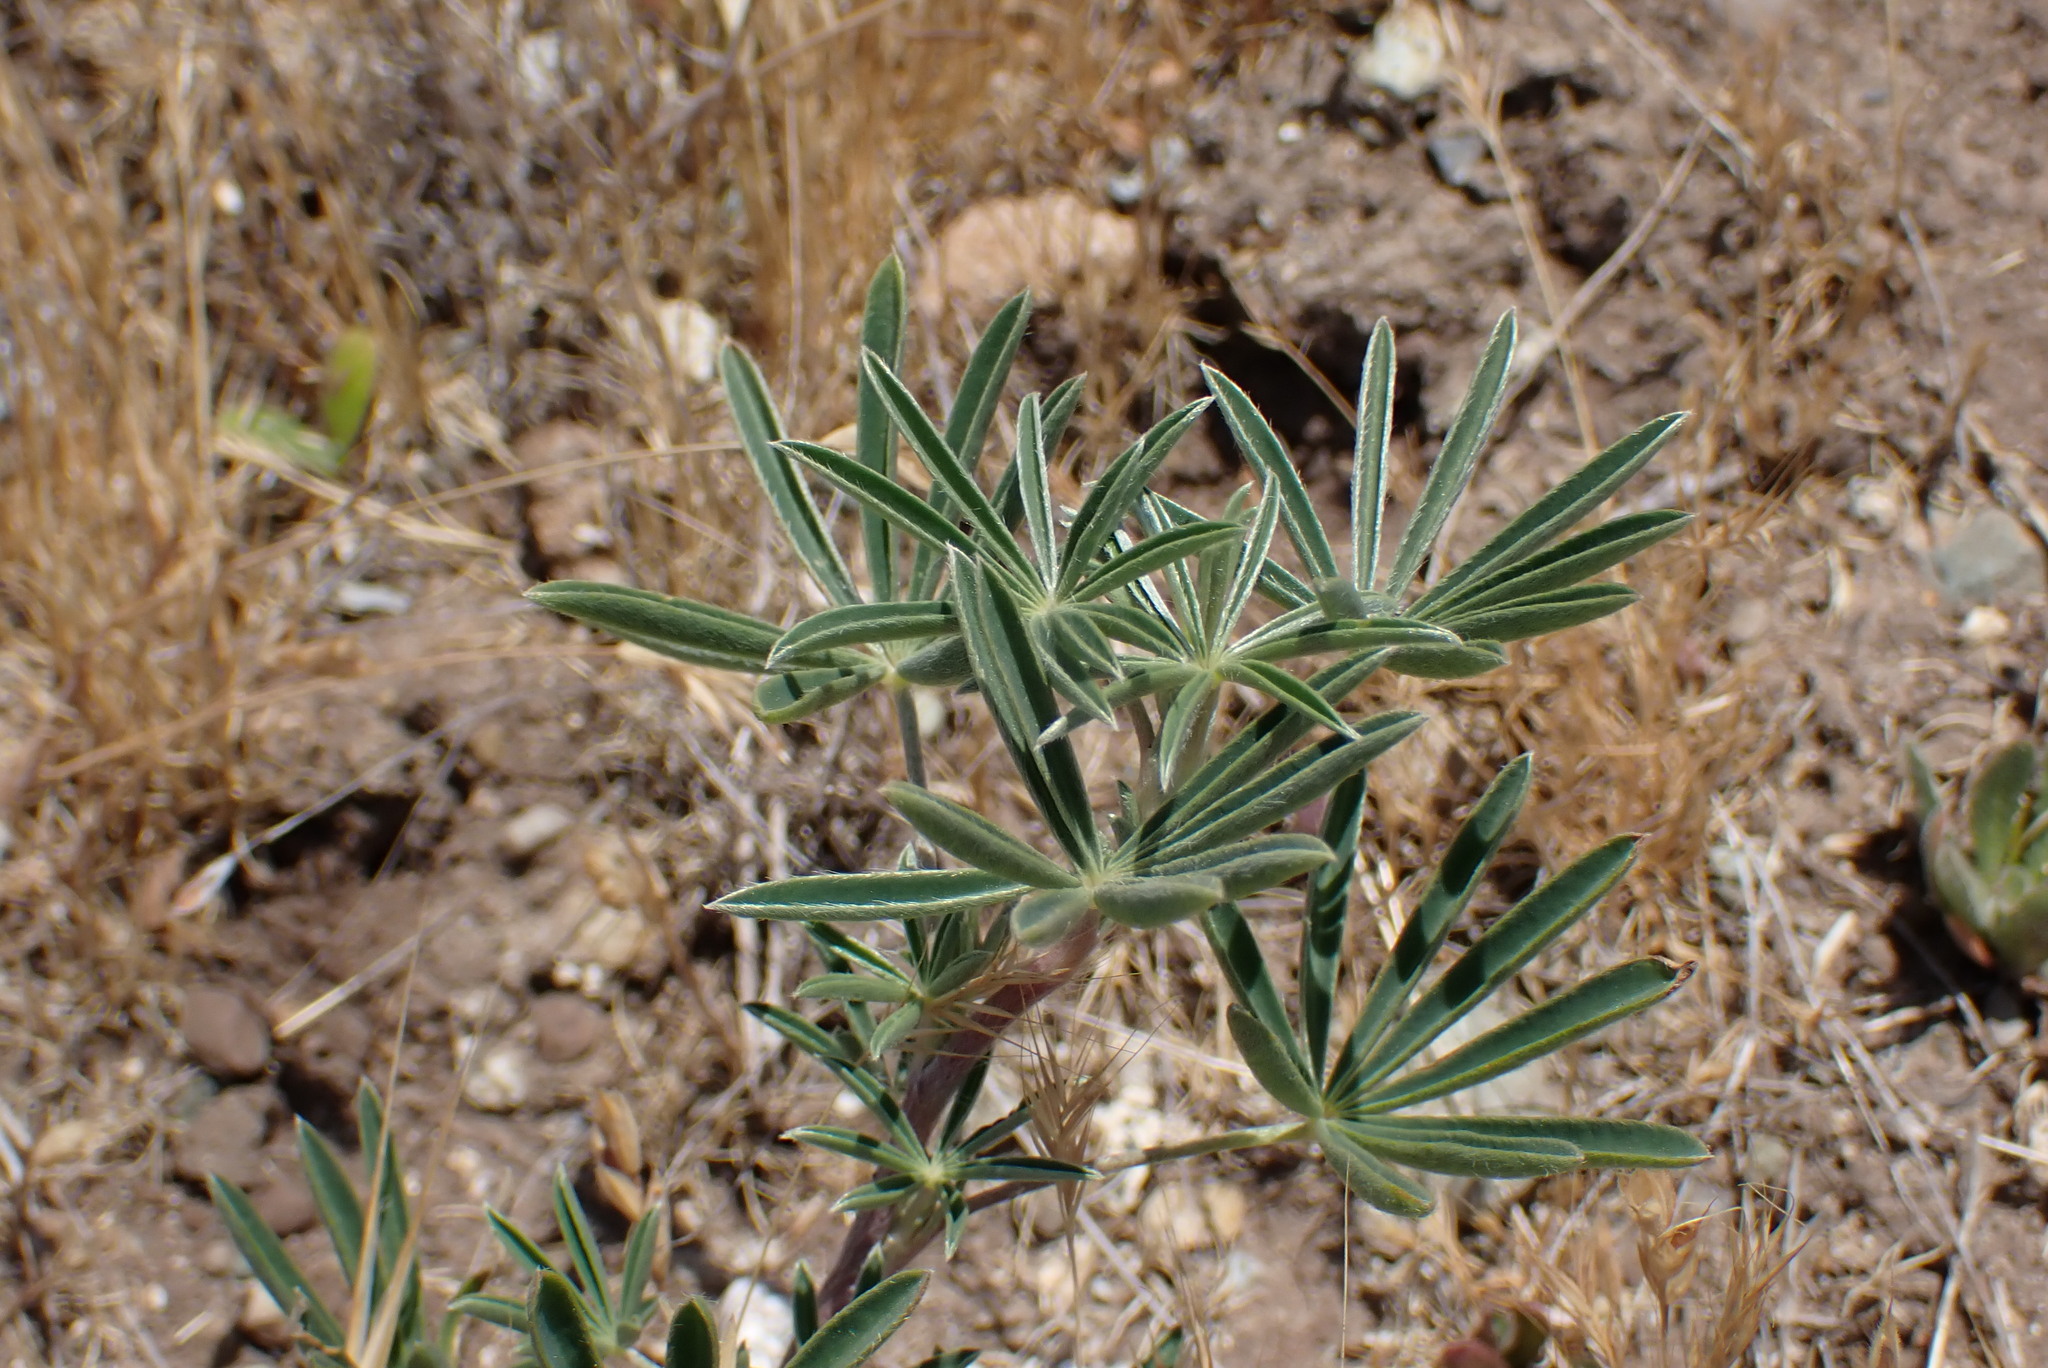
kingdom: Plantae
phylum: Tracheophyta
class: Magnoliopsida
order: Fabales
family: Fabaceae
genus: Lupinus
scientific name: Lupinus arboreus
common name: Yellow bush lupine
